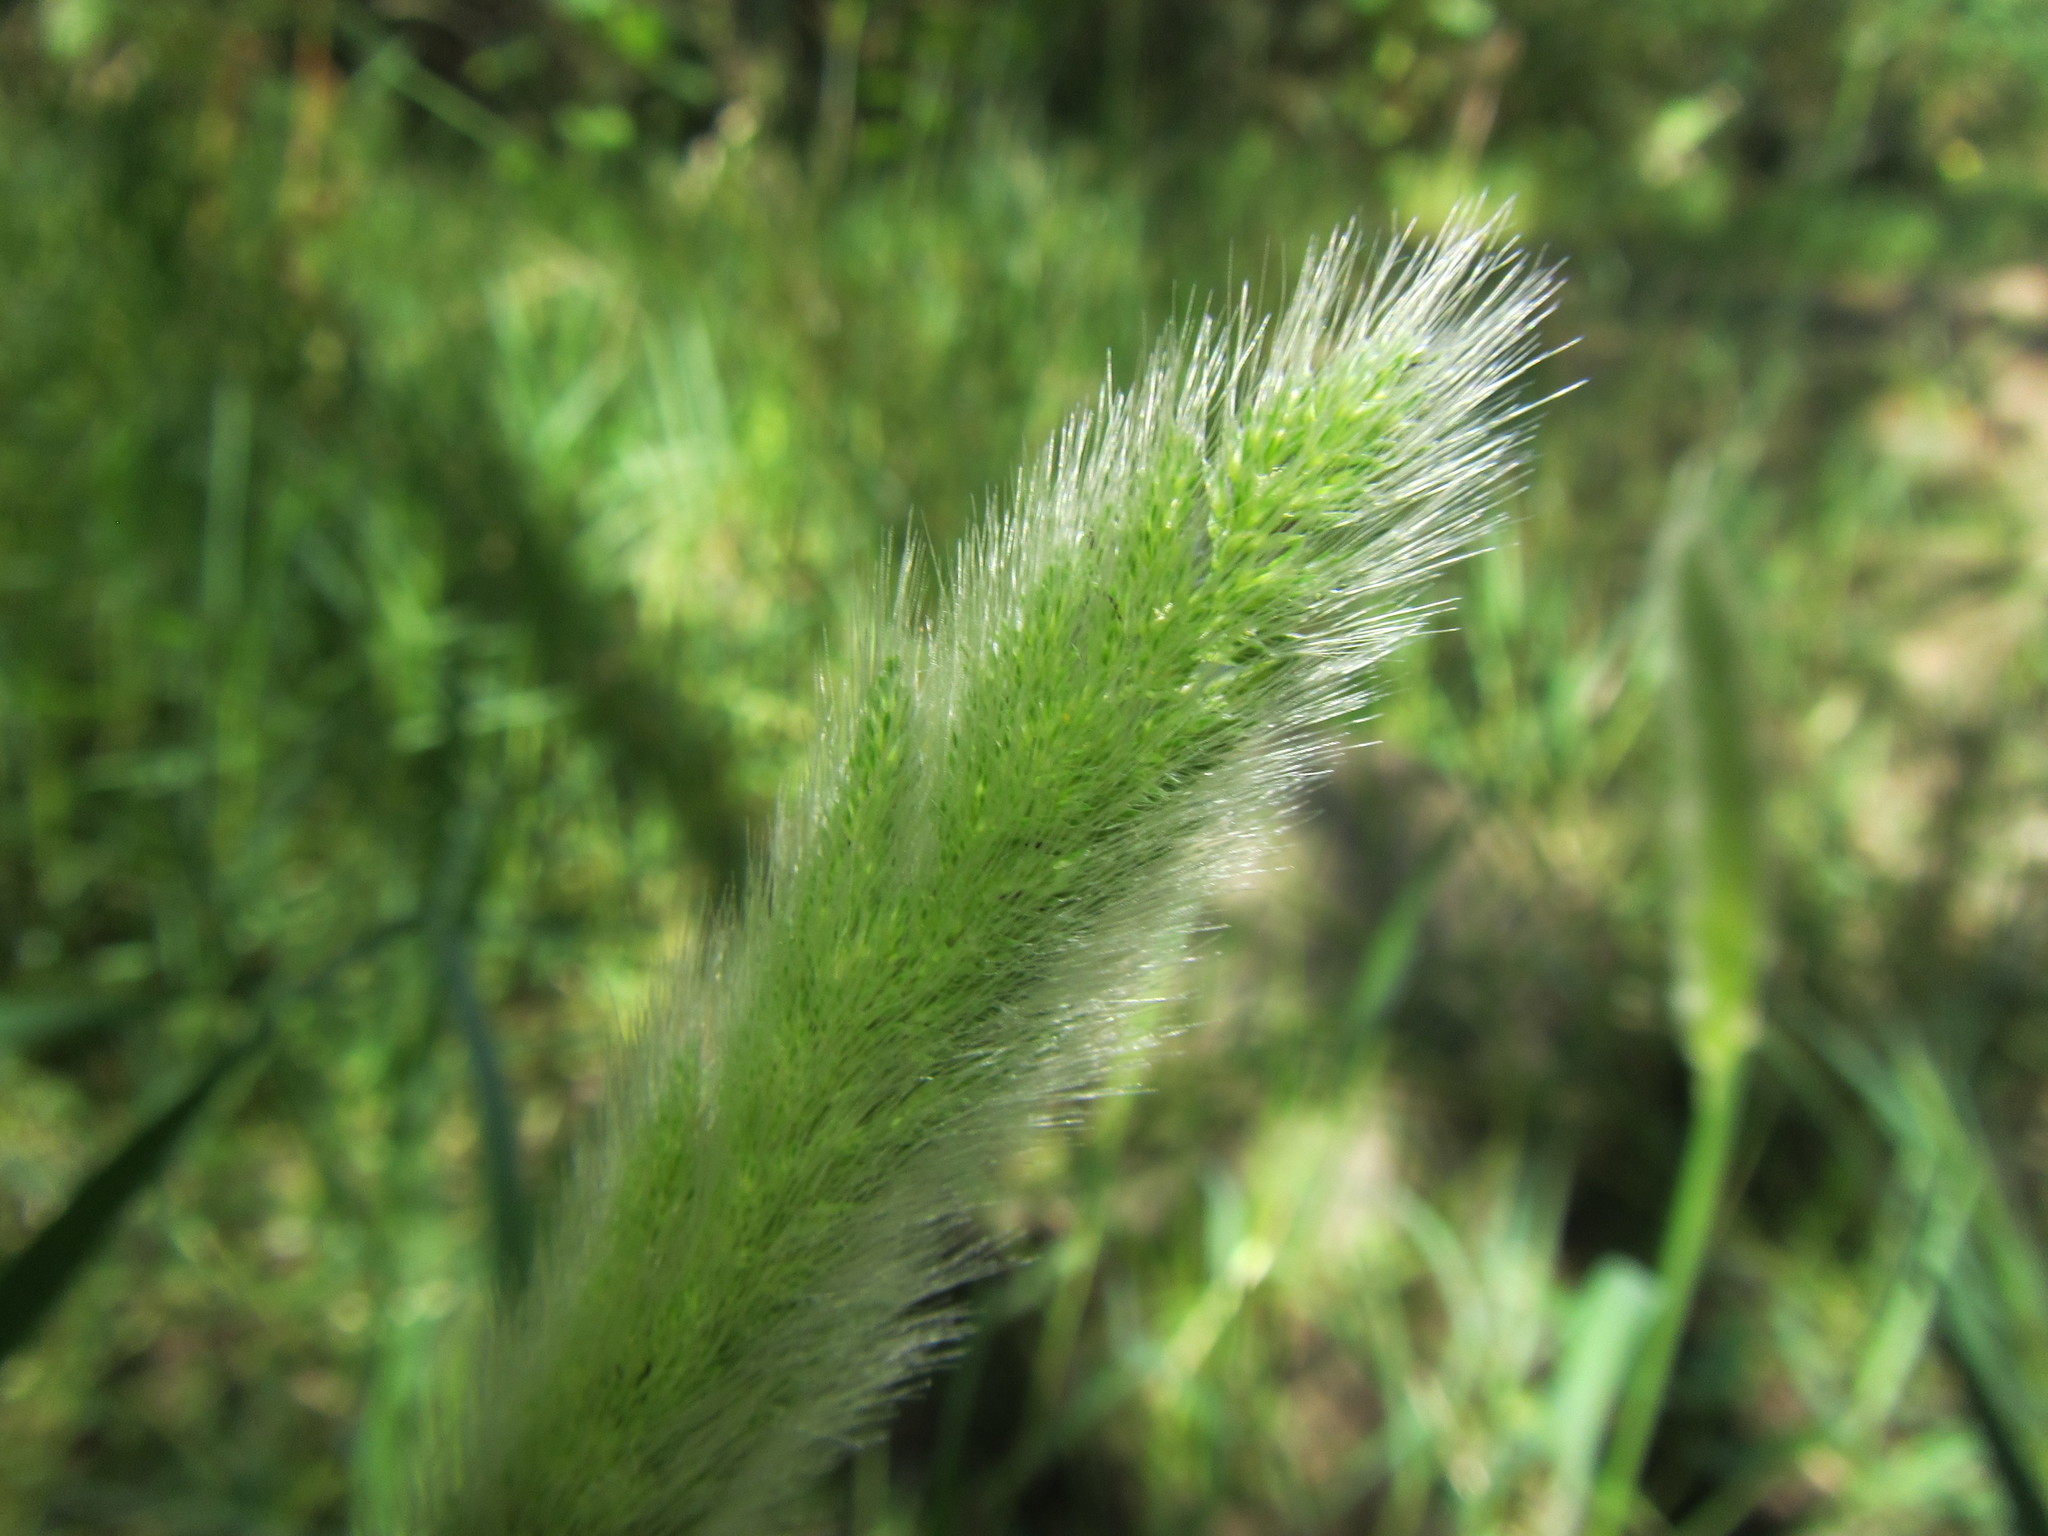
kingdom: Plantae
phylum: Tracheophyta
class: Liliopsida
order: Poales
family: Poaceae
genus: Polypogon
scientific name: Polypogon monspeliensis
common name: Annual rabbitsfoot grass
